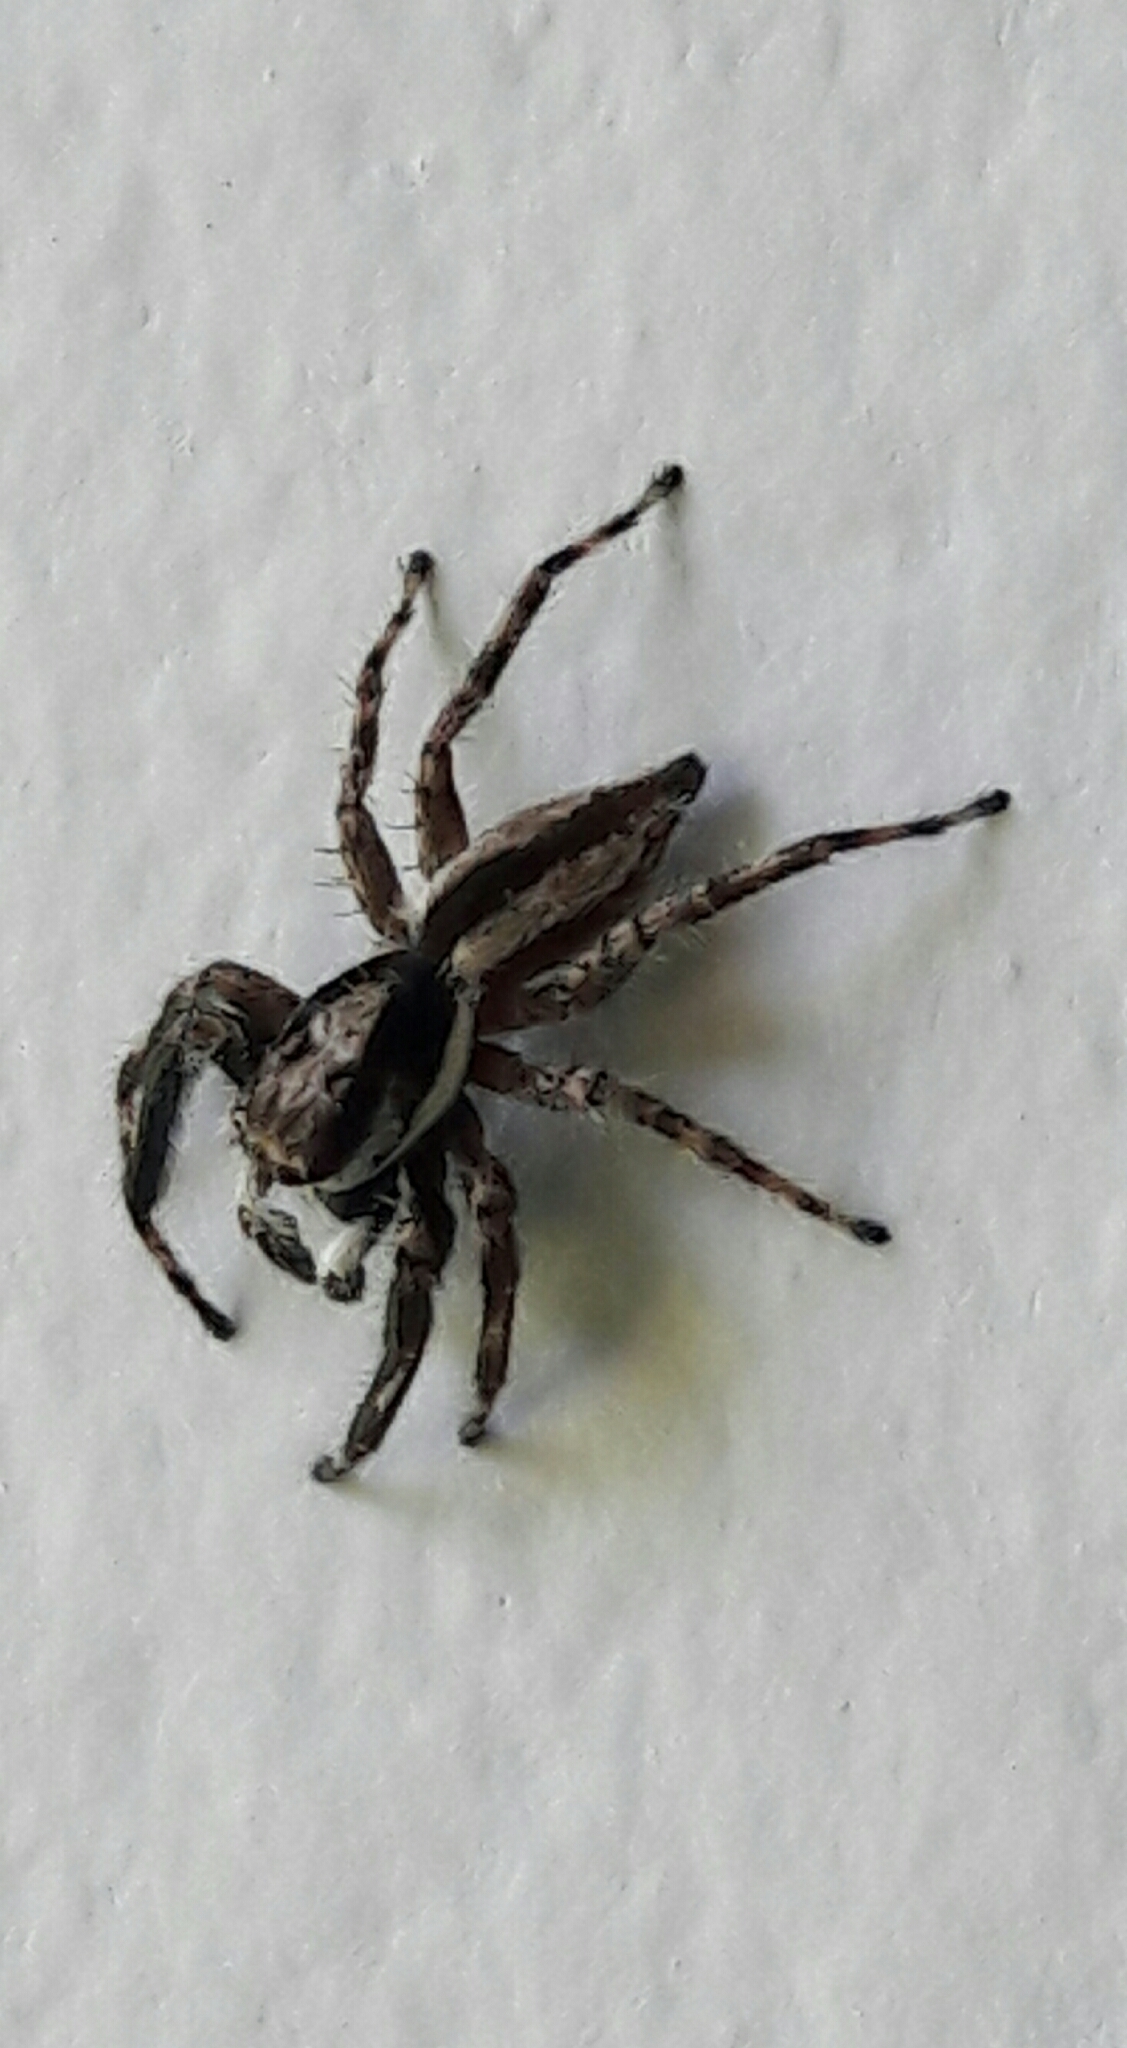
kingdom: Animalia
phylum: Arthropoda
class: Arachnida
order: Araneae
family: Salticidae
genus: Menemerus
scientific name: Menemerus bivittatus
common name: Gray wall jumper
